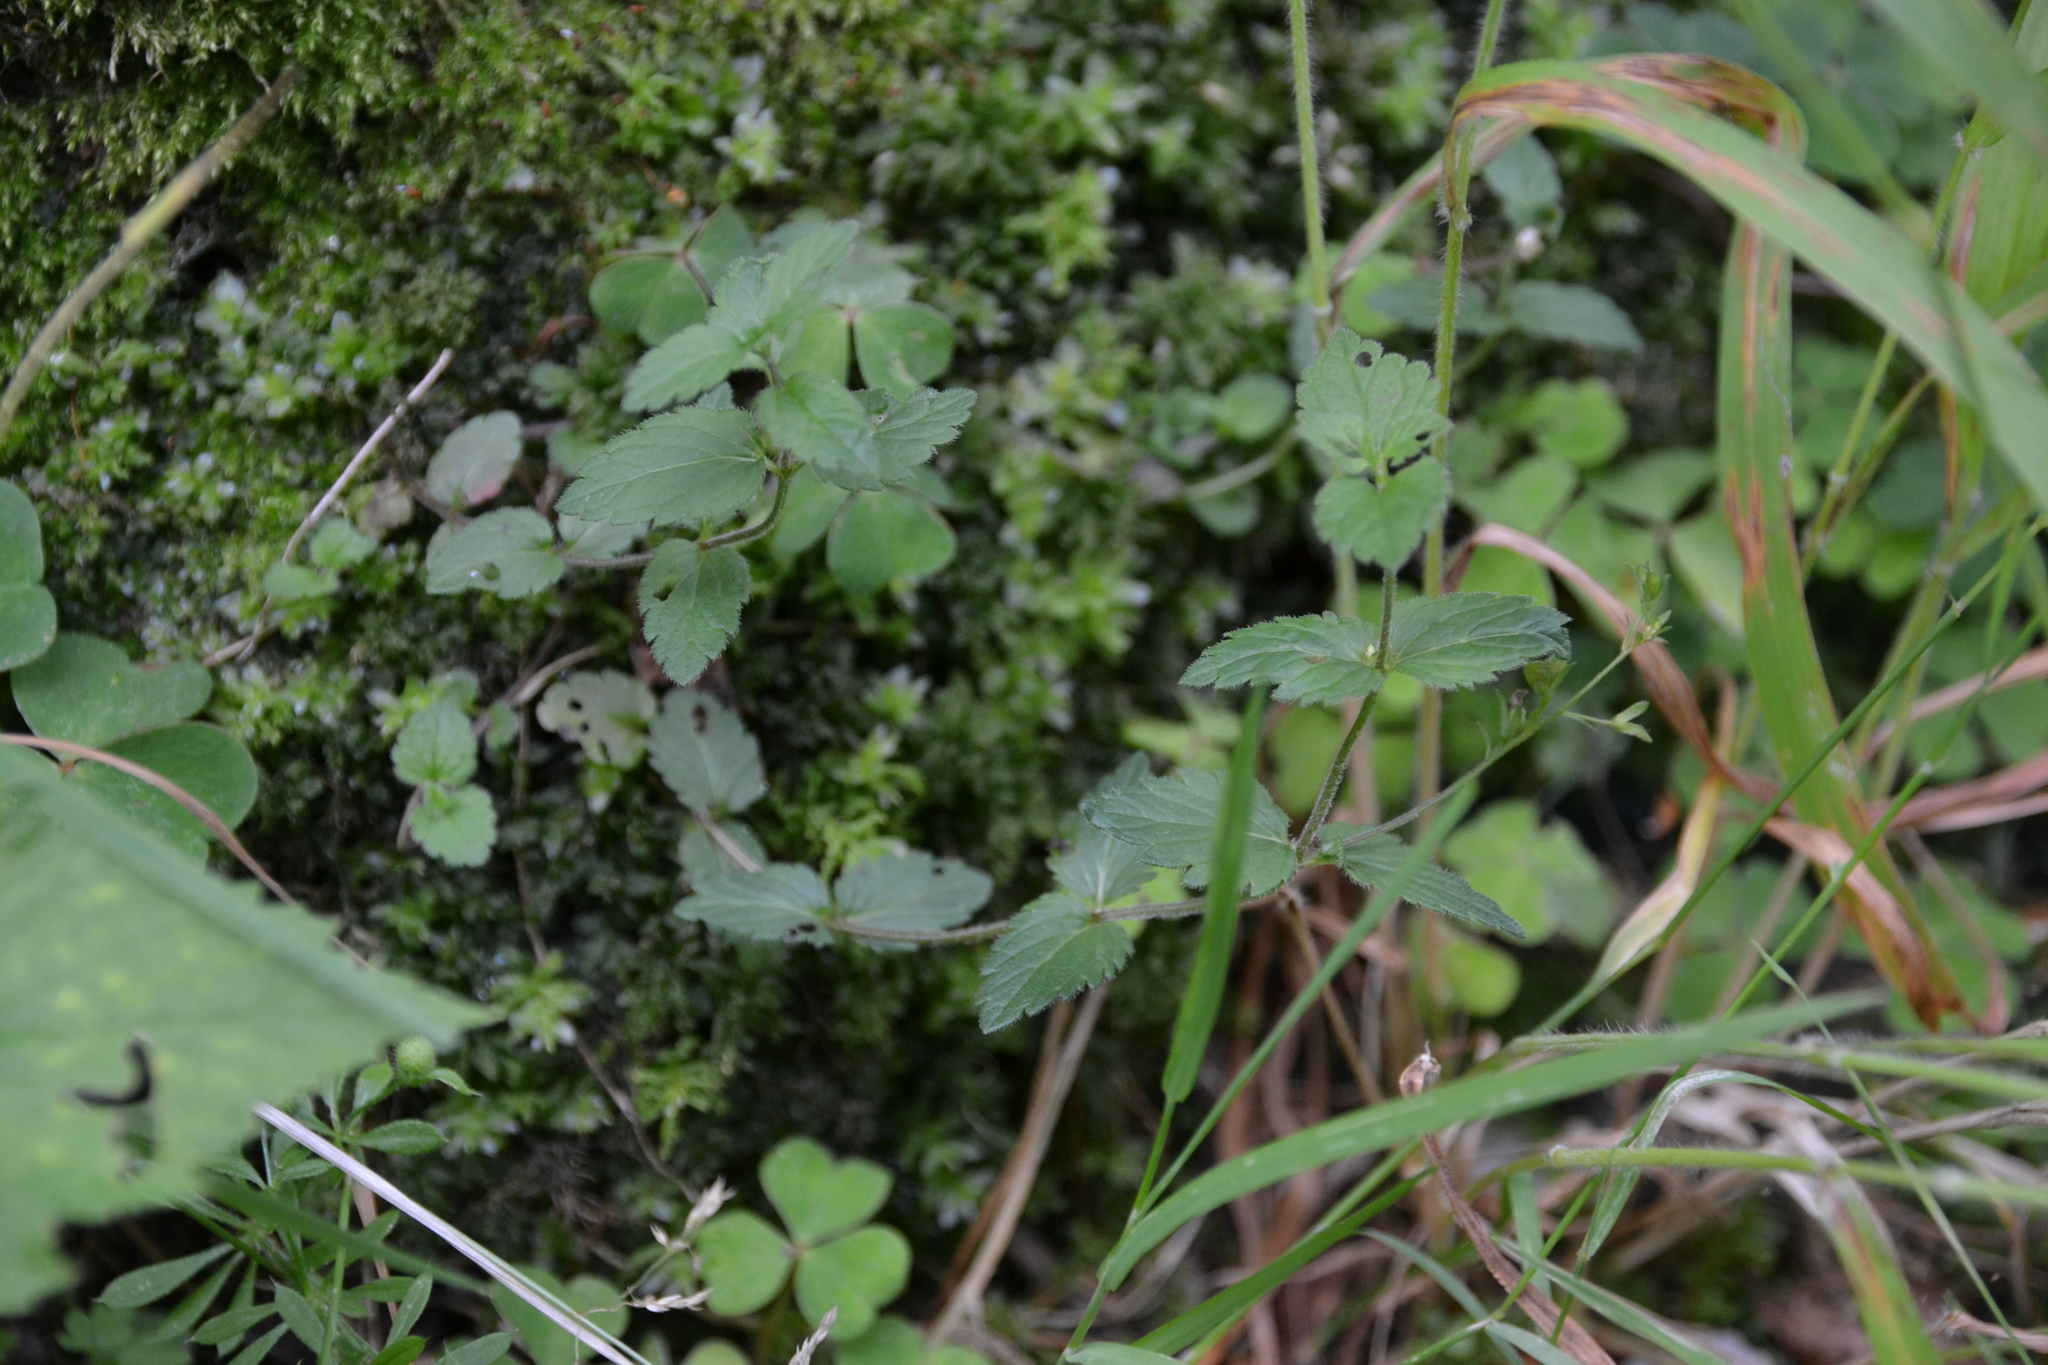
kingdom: Plantae
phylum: Tracheophyta
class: Magnoliopsida
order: Lamiales
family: Plantaginaceae
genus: Veronica
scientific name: Veronica chamaedrys
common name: Germander speedwell
